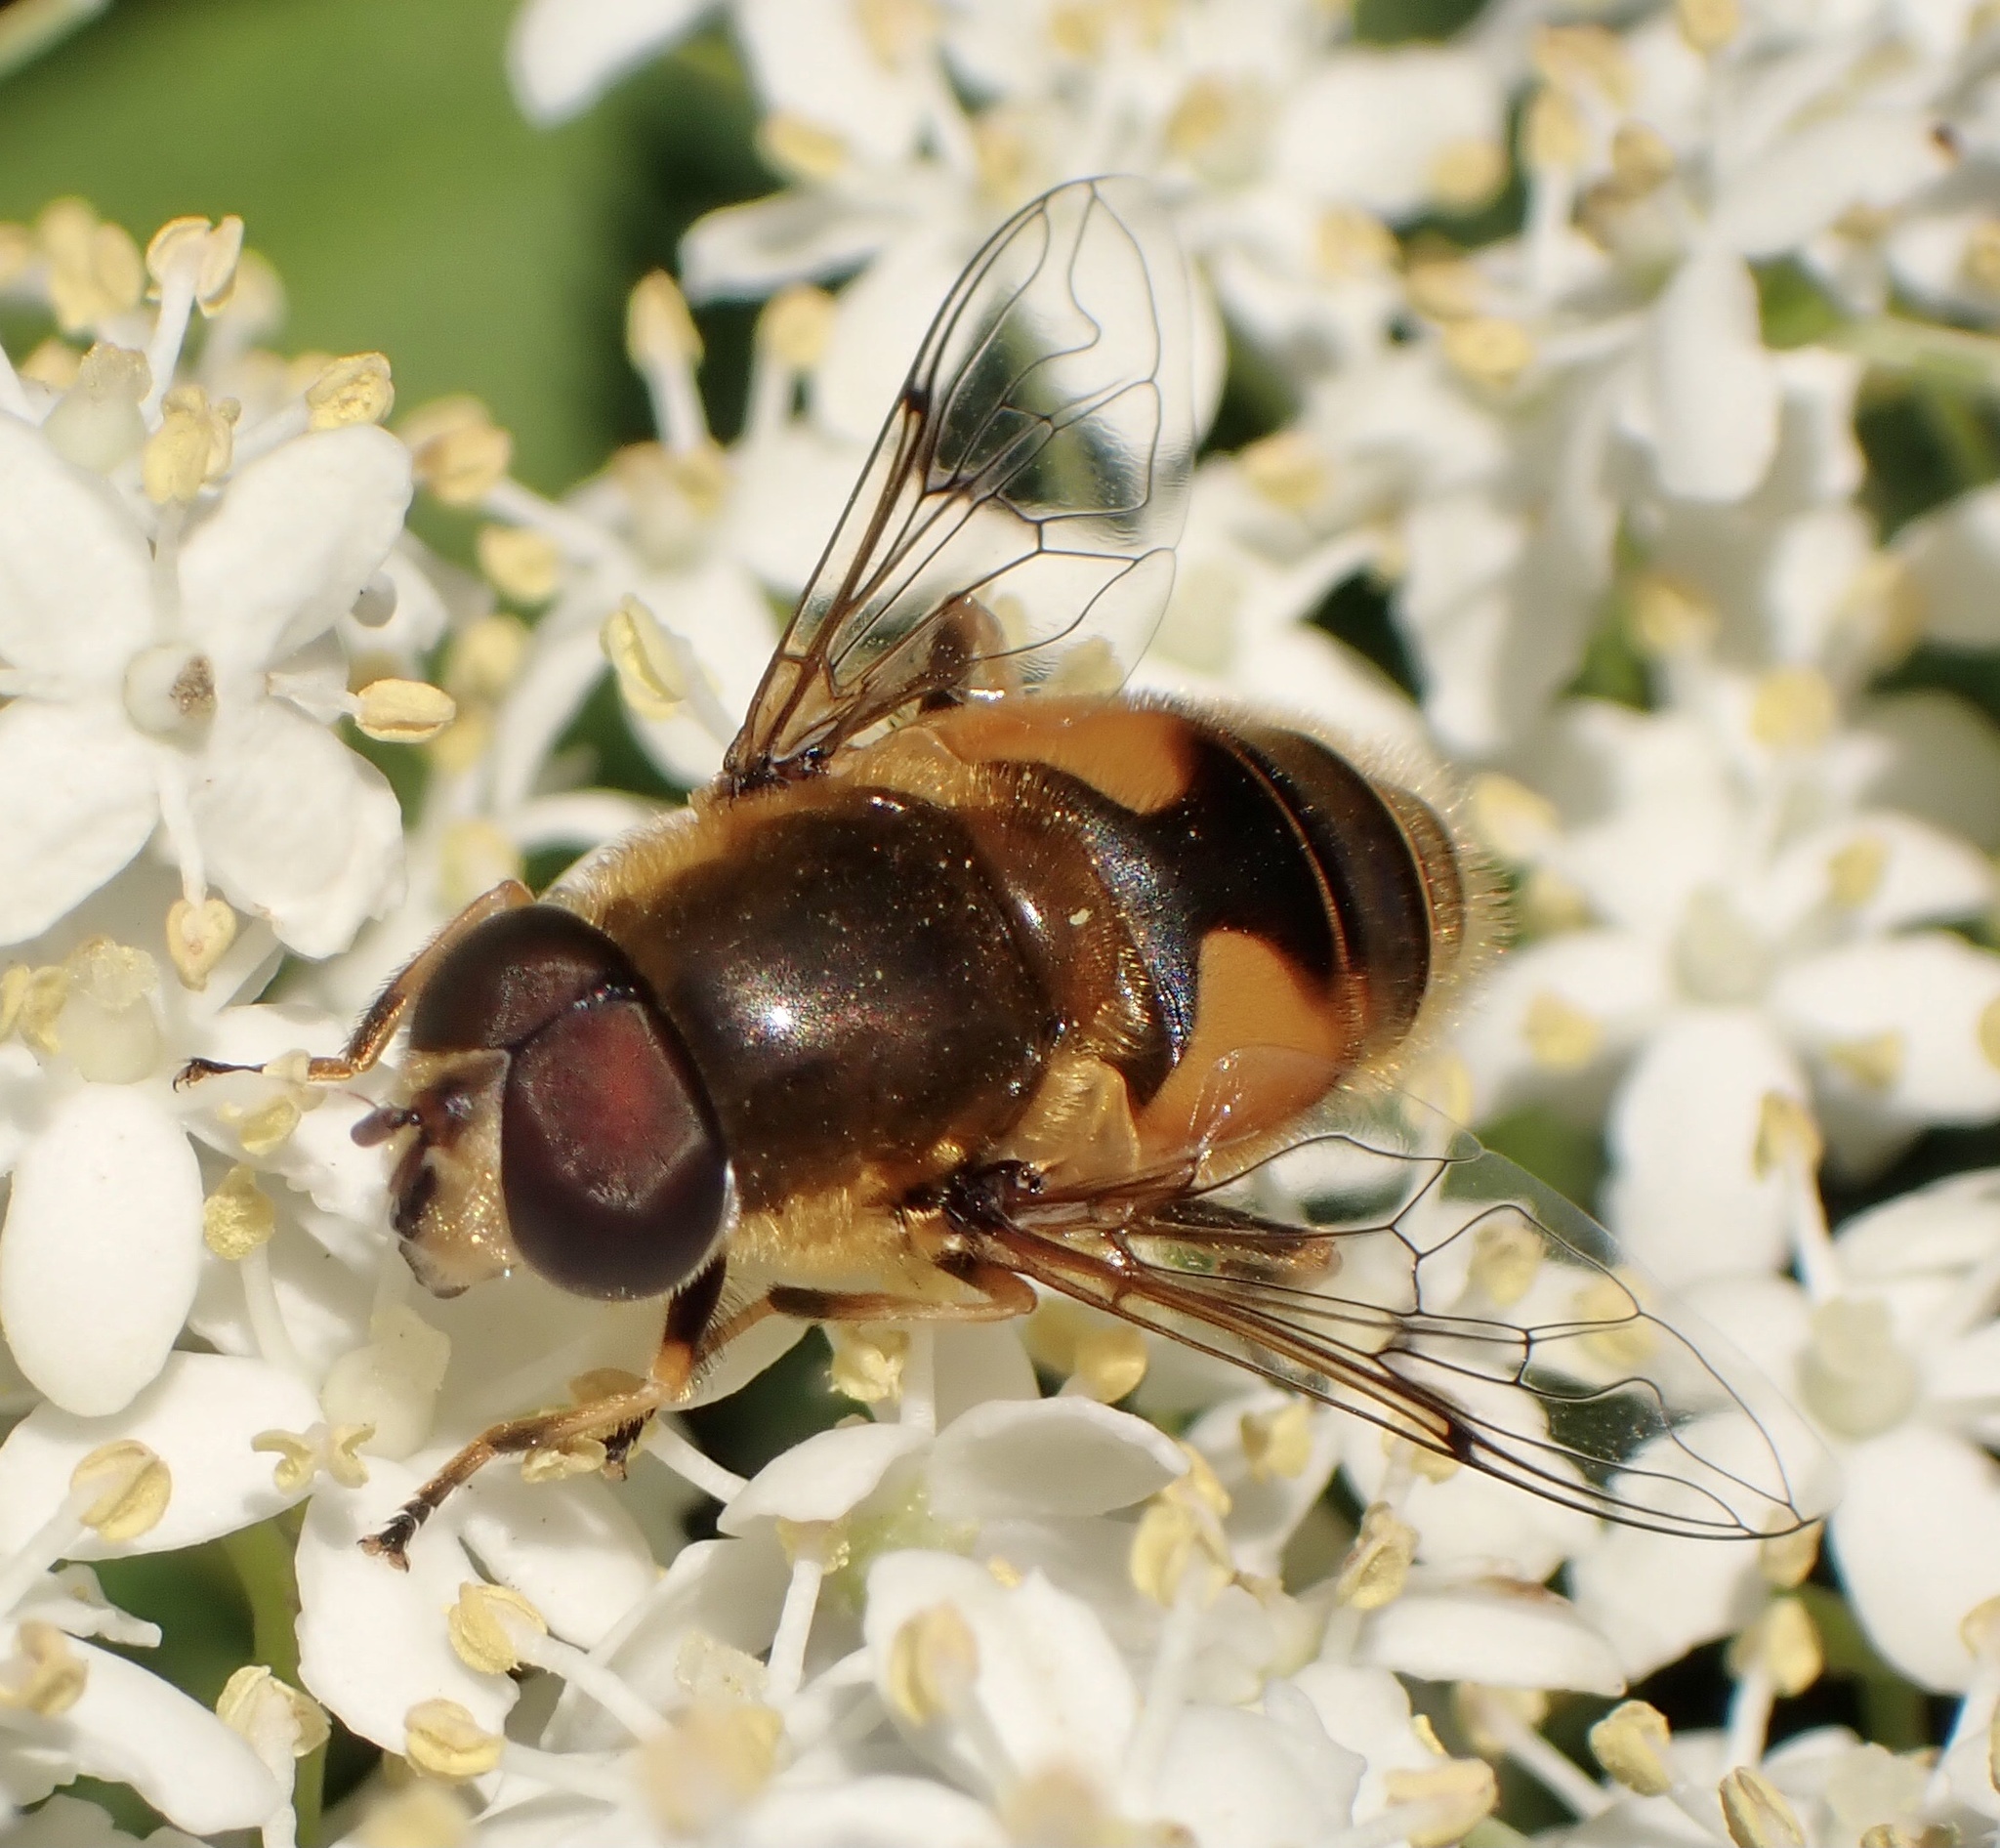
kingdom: Animalia
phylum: Arthropoda
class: Insecta
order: Diptera
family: Syrphidae
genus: Eristalis
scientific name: Eristalis nemorum
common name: Orange-spined drone fly
